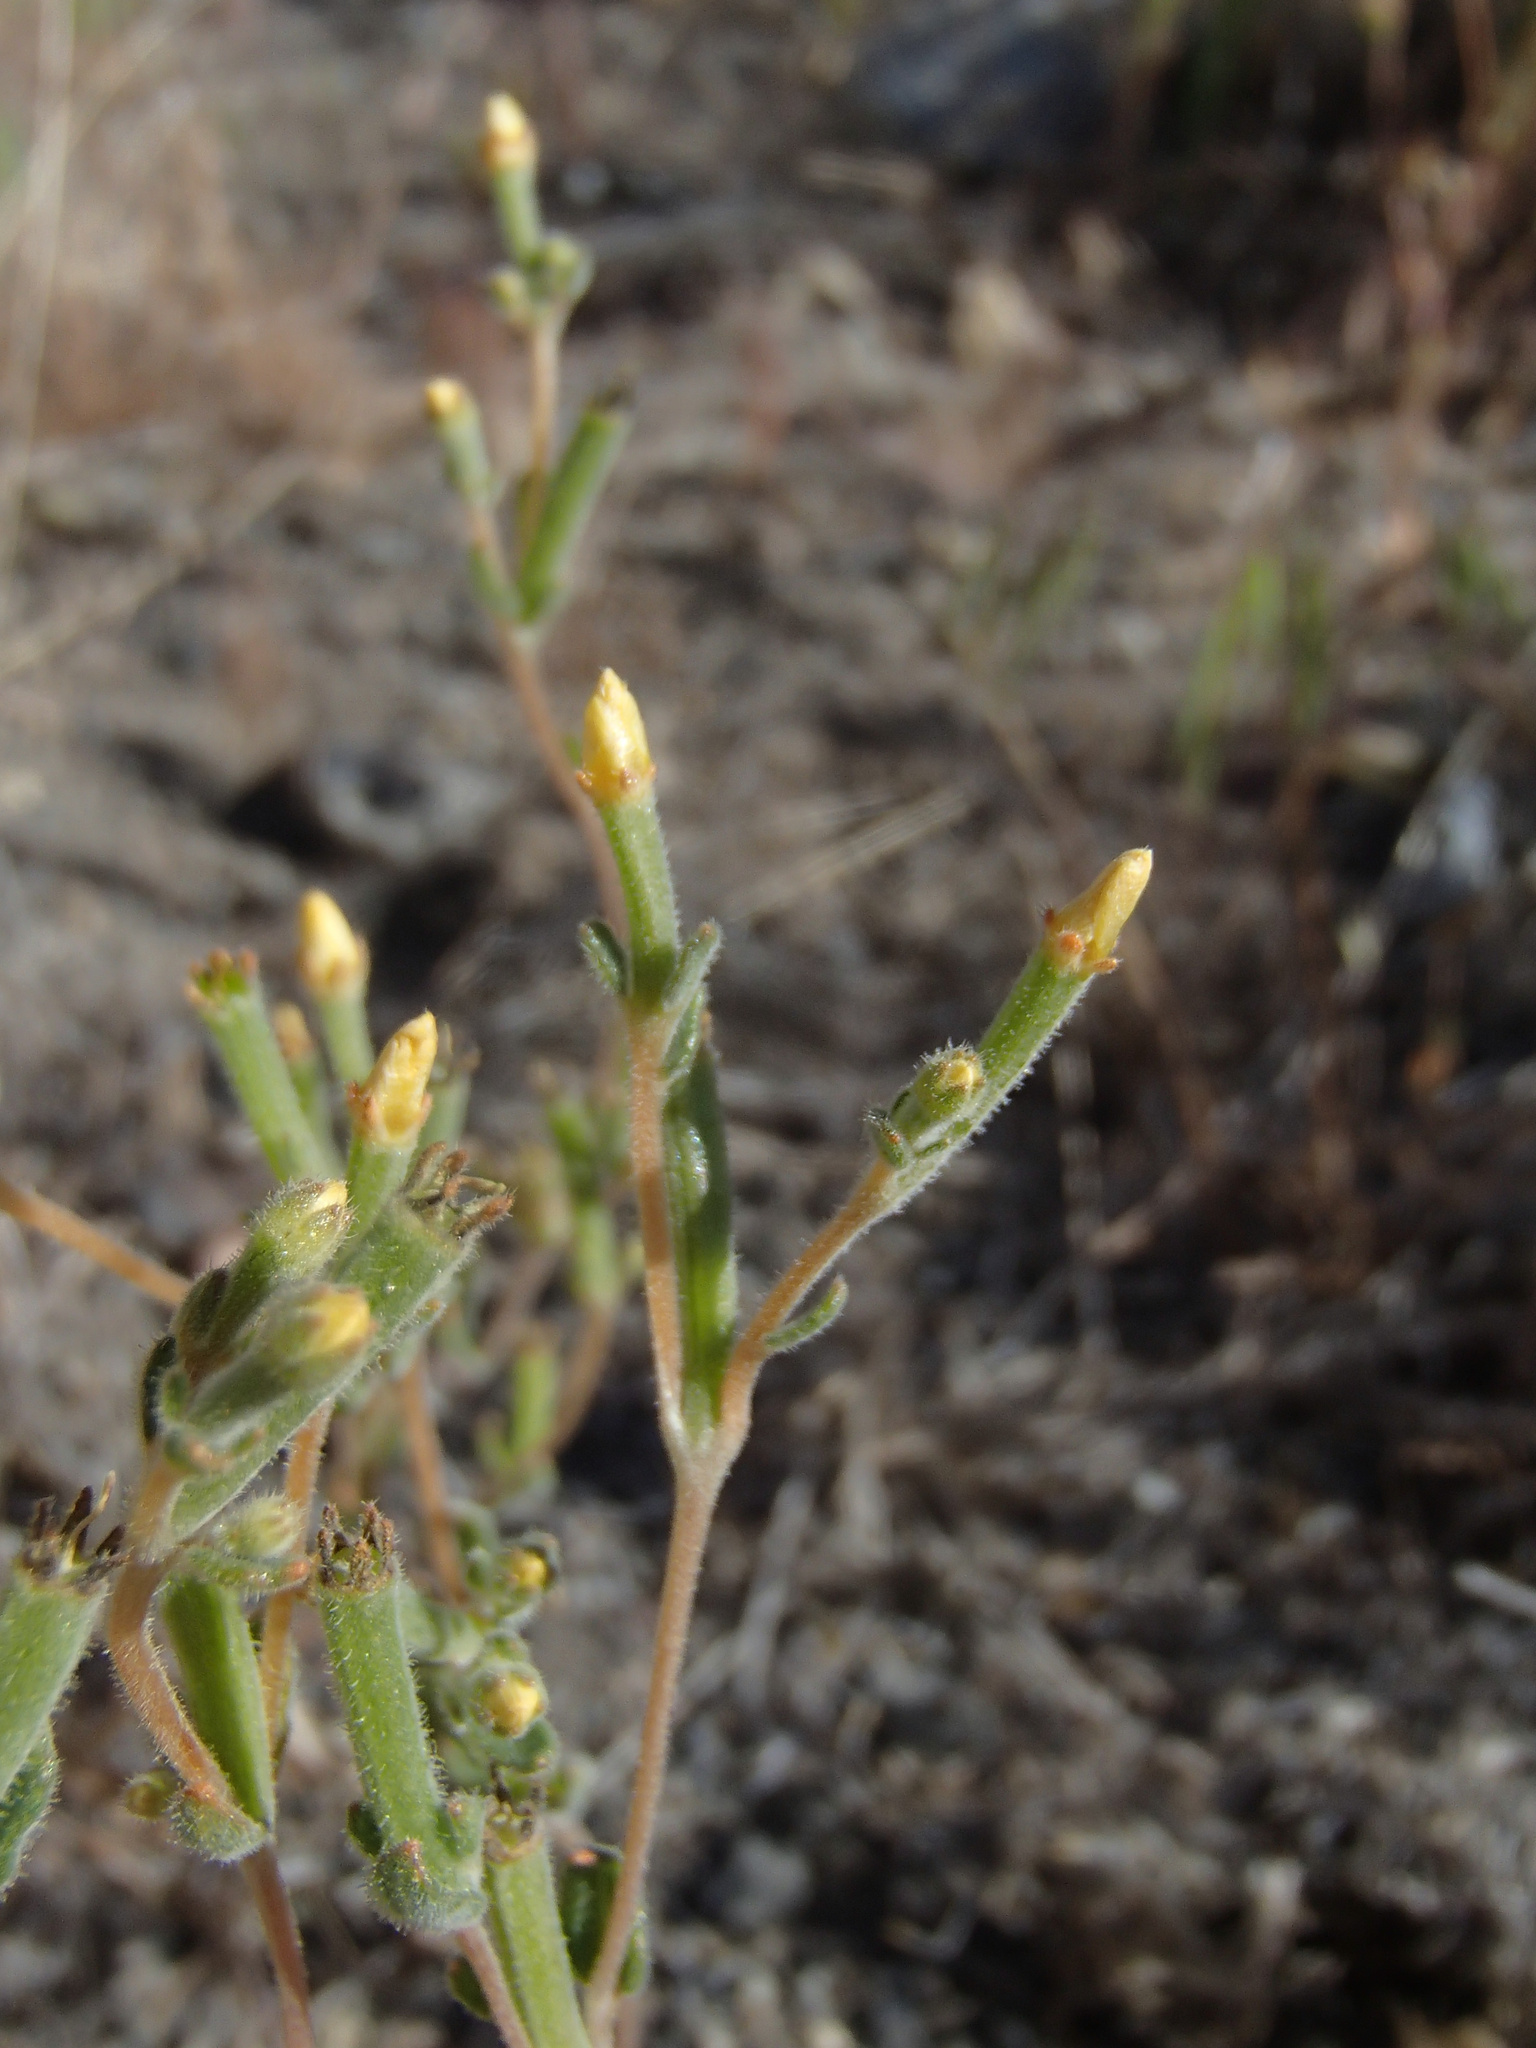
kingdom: Plantae
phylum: Tracheophyta
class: Magnoliopsida
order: Cornales
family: Loasaceae
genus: Mentzelia
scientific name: Mentzelia albicaulis
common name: White-stem blazingstar
